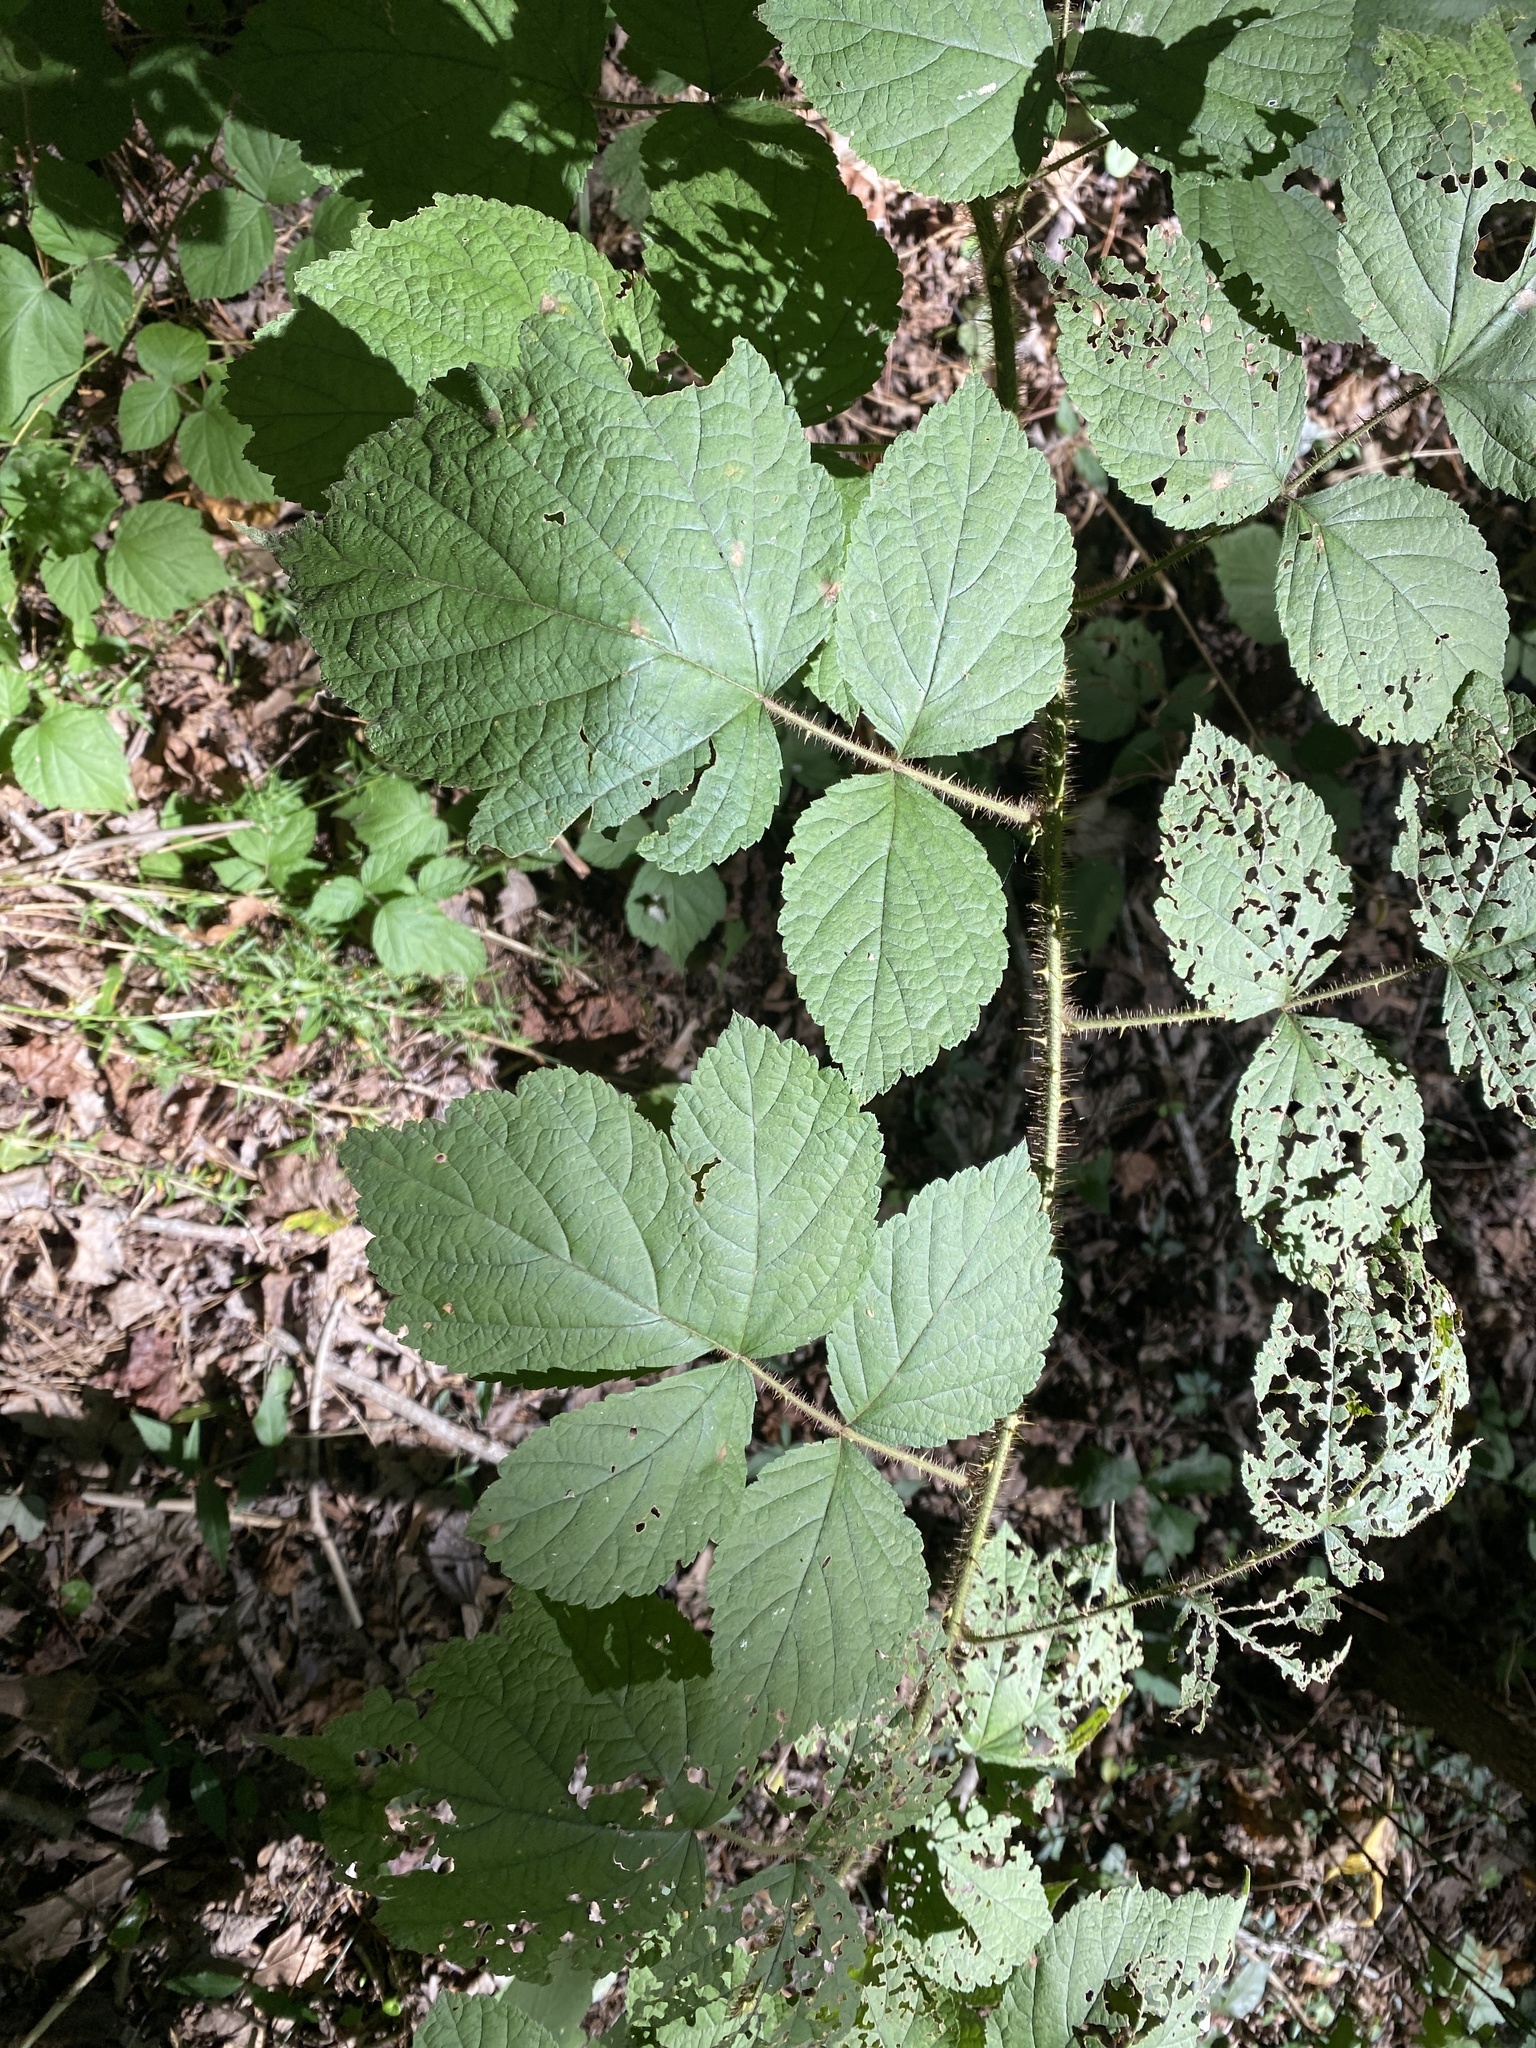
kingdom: Plantae
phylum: Tracheophyta
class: Magnoliopsida
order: Rosales
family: Rosaceae
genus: Rubus
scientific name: Rubus phoenicolasius
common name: Japanese wineberry
